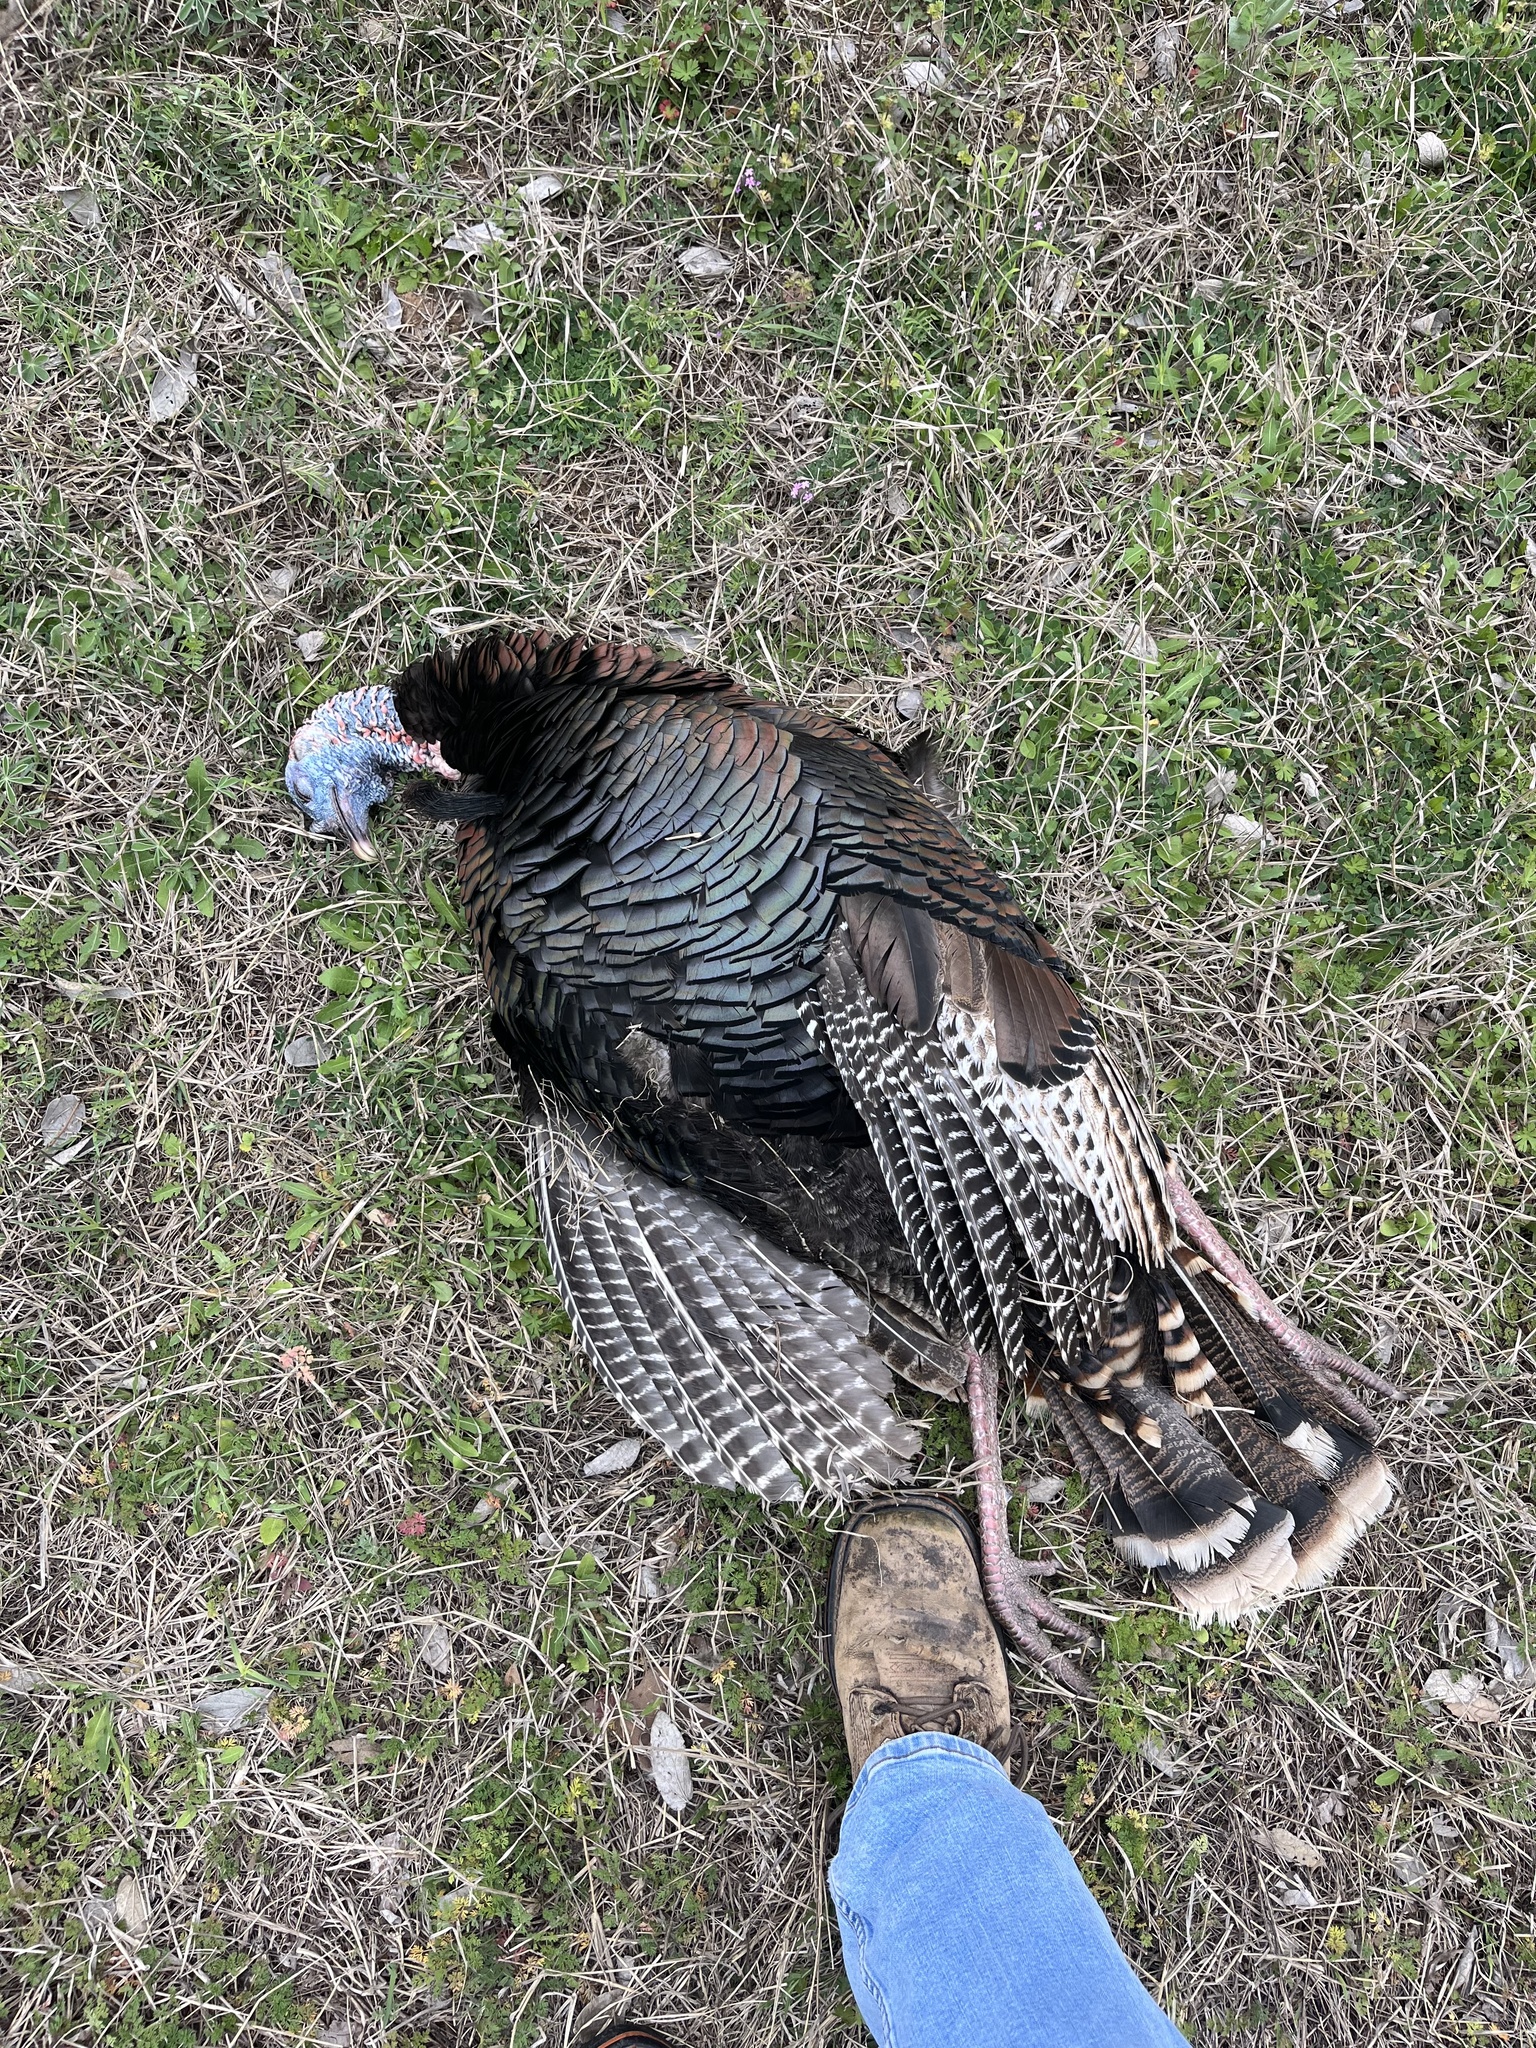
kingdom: Animalia
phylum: Chordata
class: Aves
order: Galliformes
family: Phasianidae
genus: Meleagris
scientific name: Meleagris gallopavo
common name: Wild turkey
